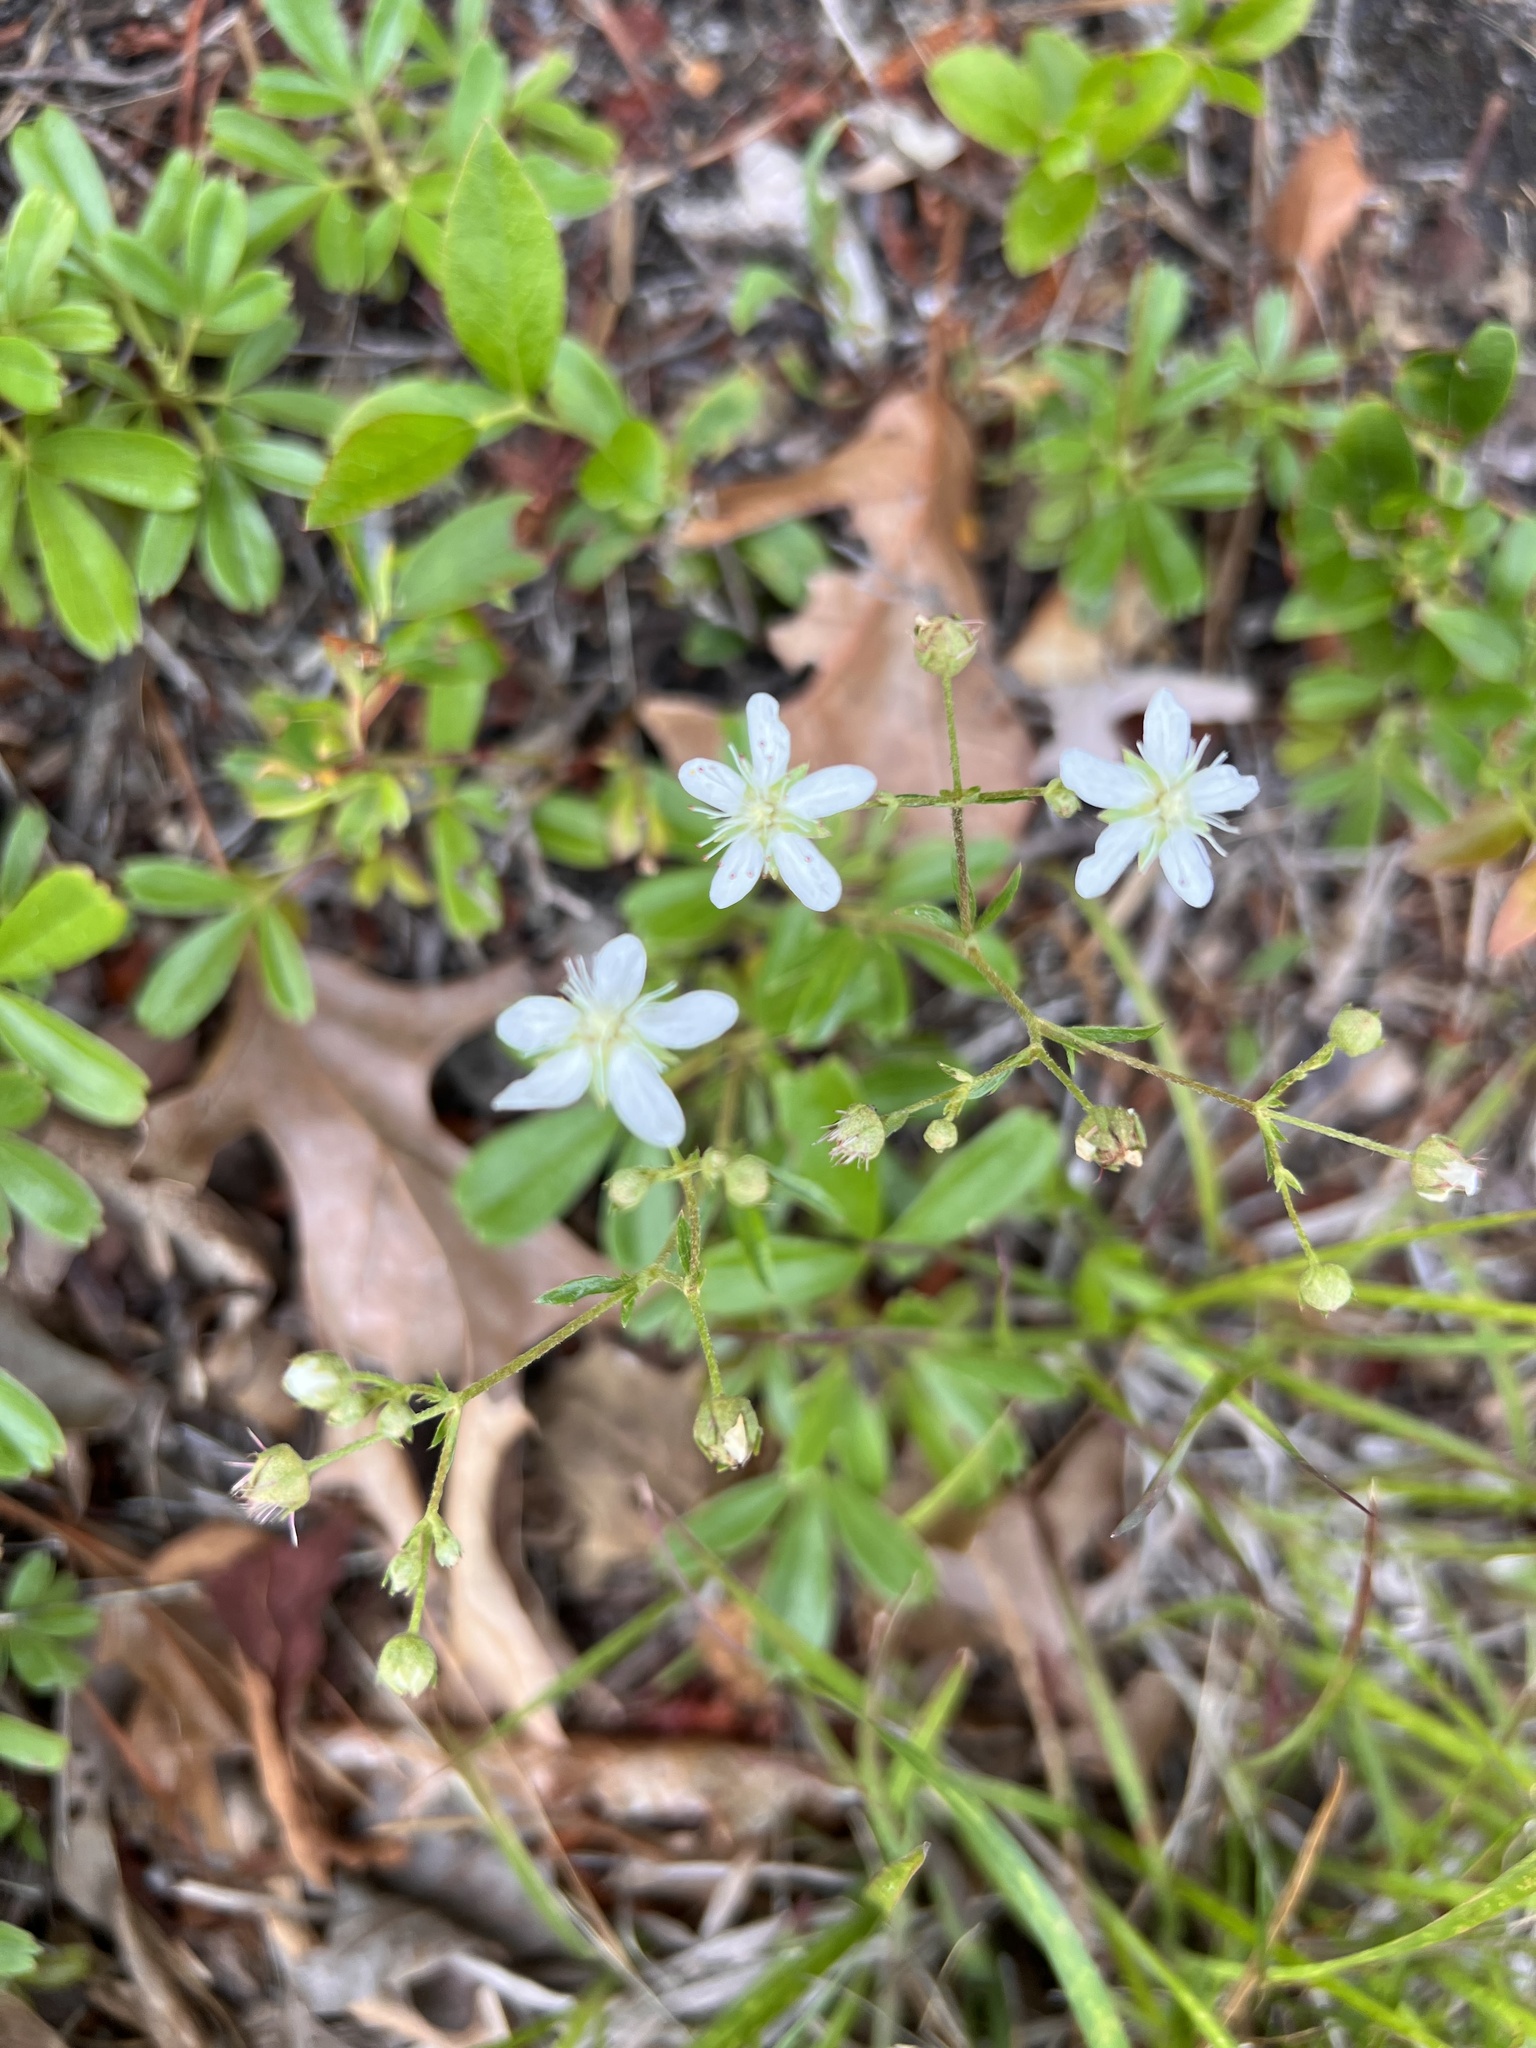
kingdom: Plantae
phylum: Tracheophyta
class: Magnoliopsida
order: Rosales
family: Rosaceae
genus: Sibbaldia
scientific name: Sibbaldia tridentata
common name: Three-toothed cinquefoil
